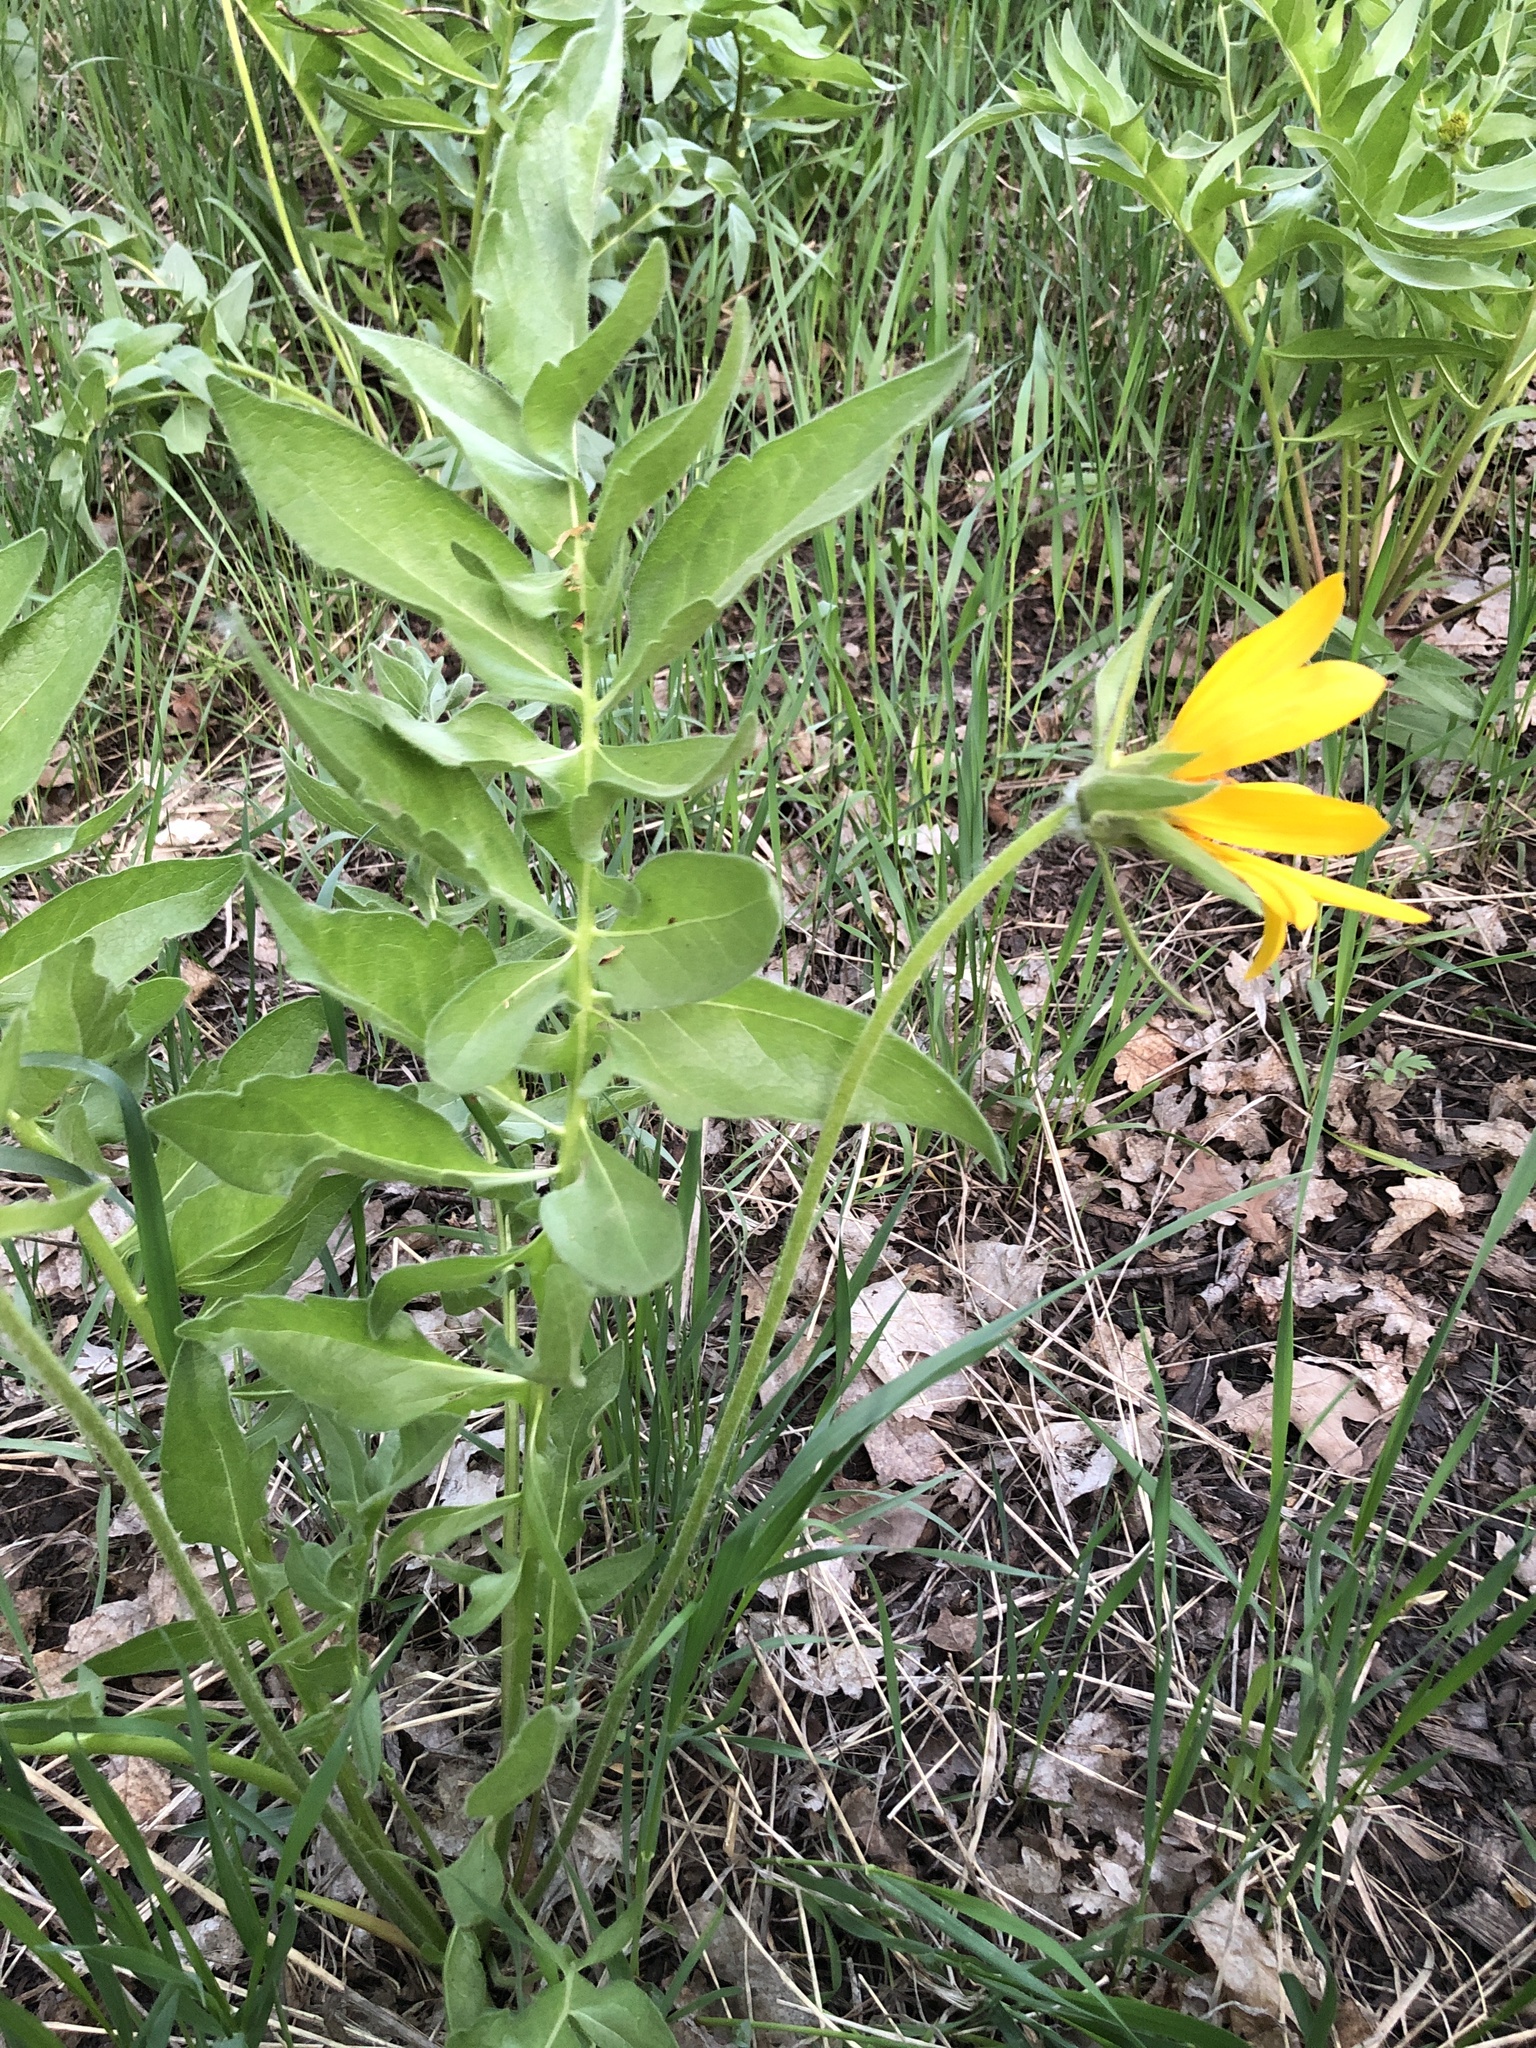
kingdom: Plantae
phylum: Tracheophyta
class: Magnoliopsida
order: Asterales
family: Asteraceae
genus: Balsamorhiza
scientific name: Balsamorhiza macrophylla
